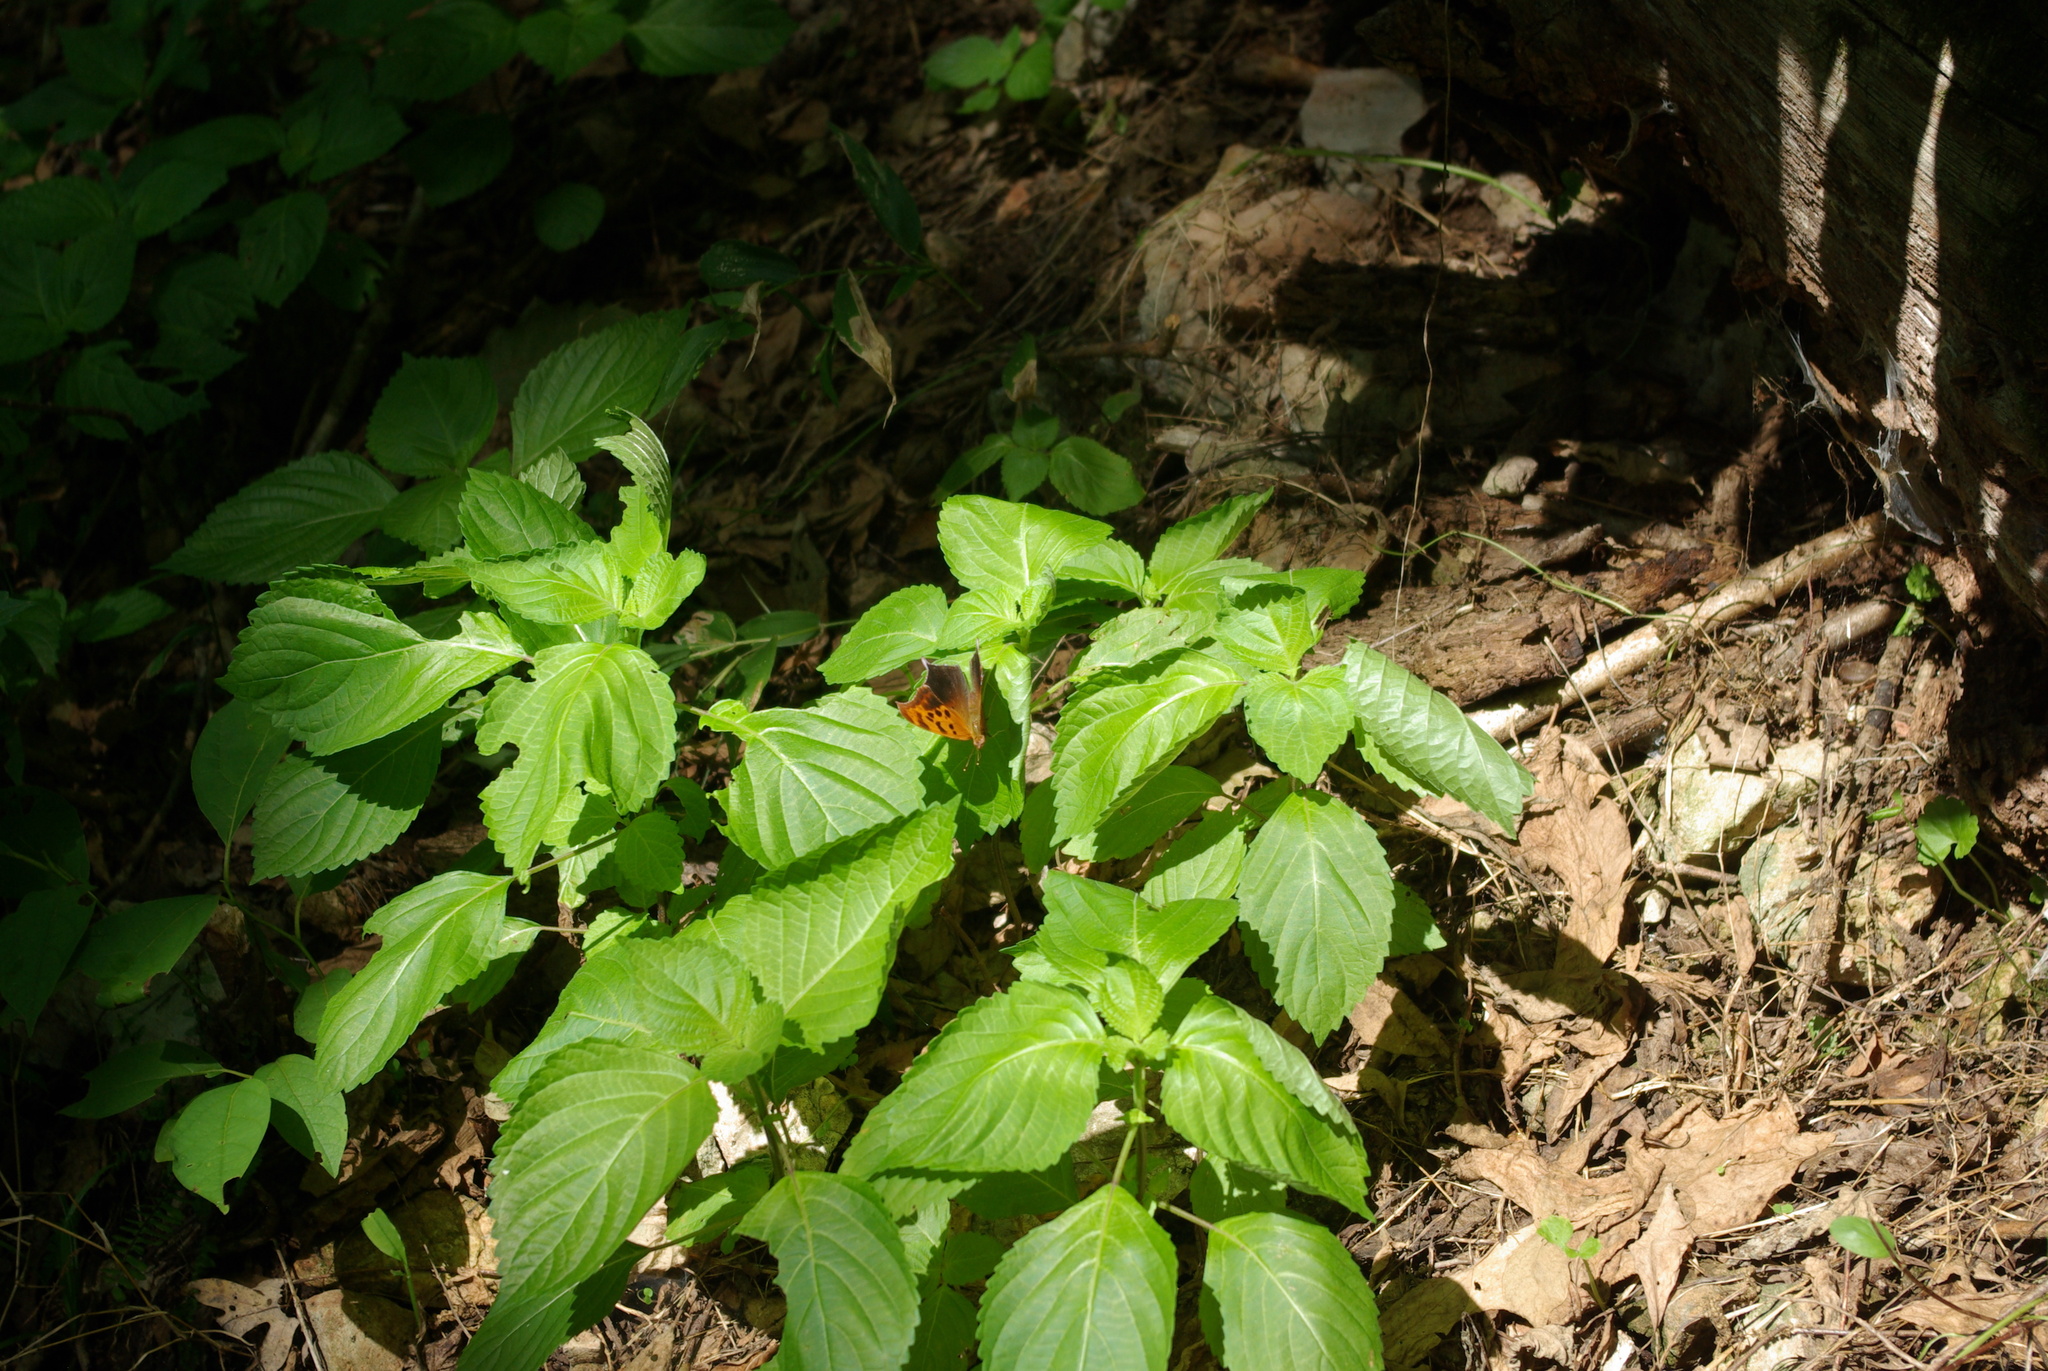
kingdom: Animalia
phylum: Arthropoda
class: Insecta
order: Lepidoptera
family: Nymphalidae
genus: Polygonia
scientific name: Polygonia interrogationis
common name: Question mark
